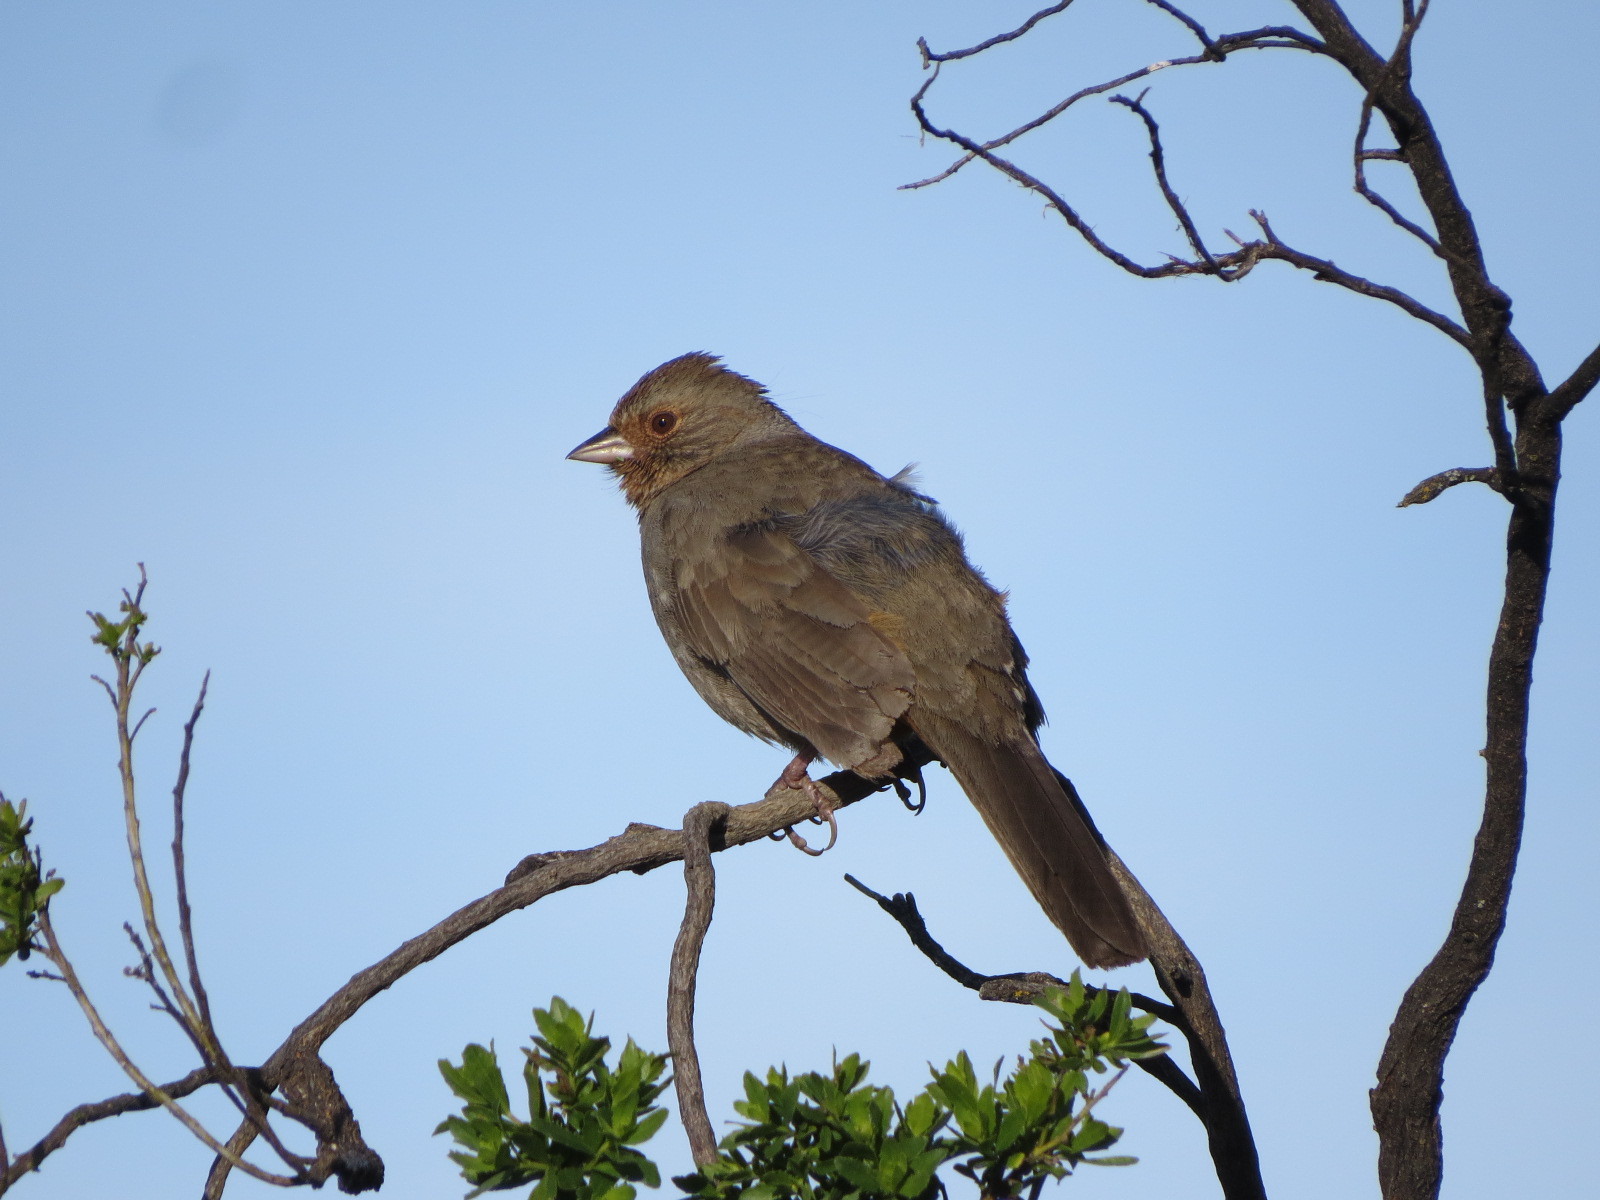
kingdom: Animalia
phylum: Chordata
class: Aves
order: Passeriformes
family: Passerellidae
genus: Melozone
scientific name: Melozone crissalis
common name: California towhee
